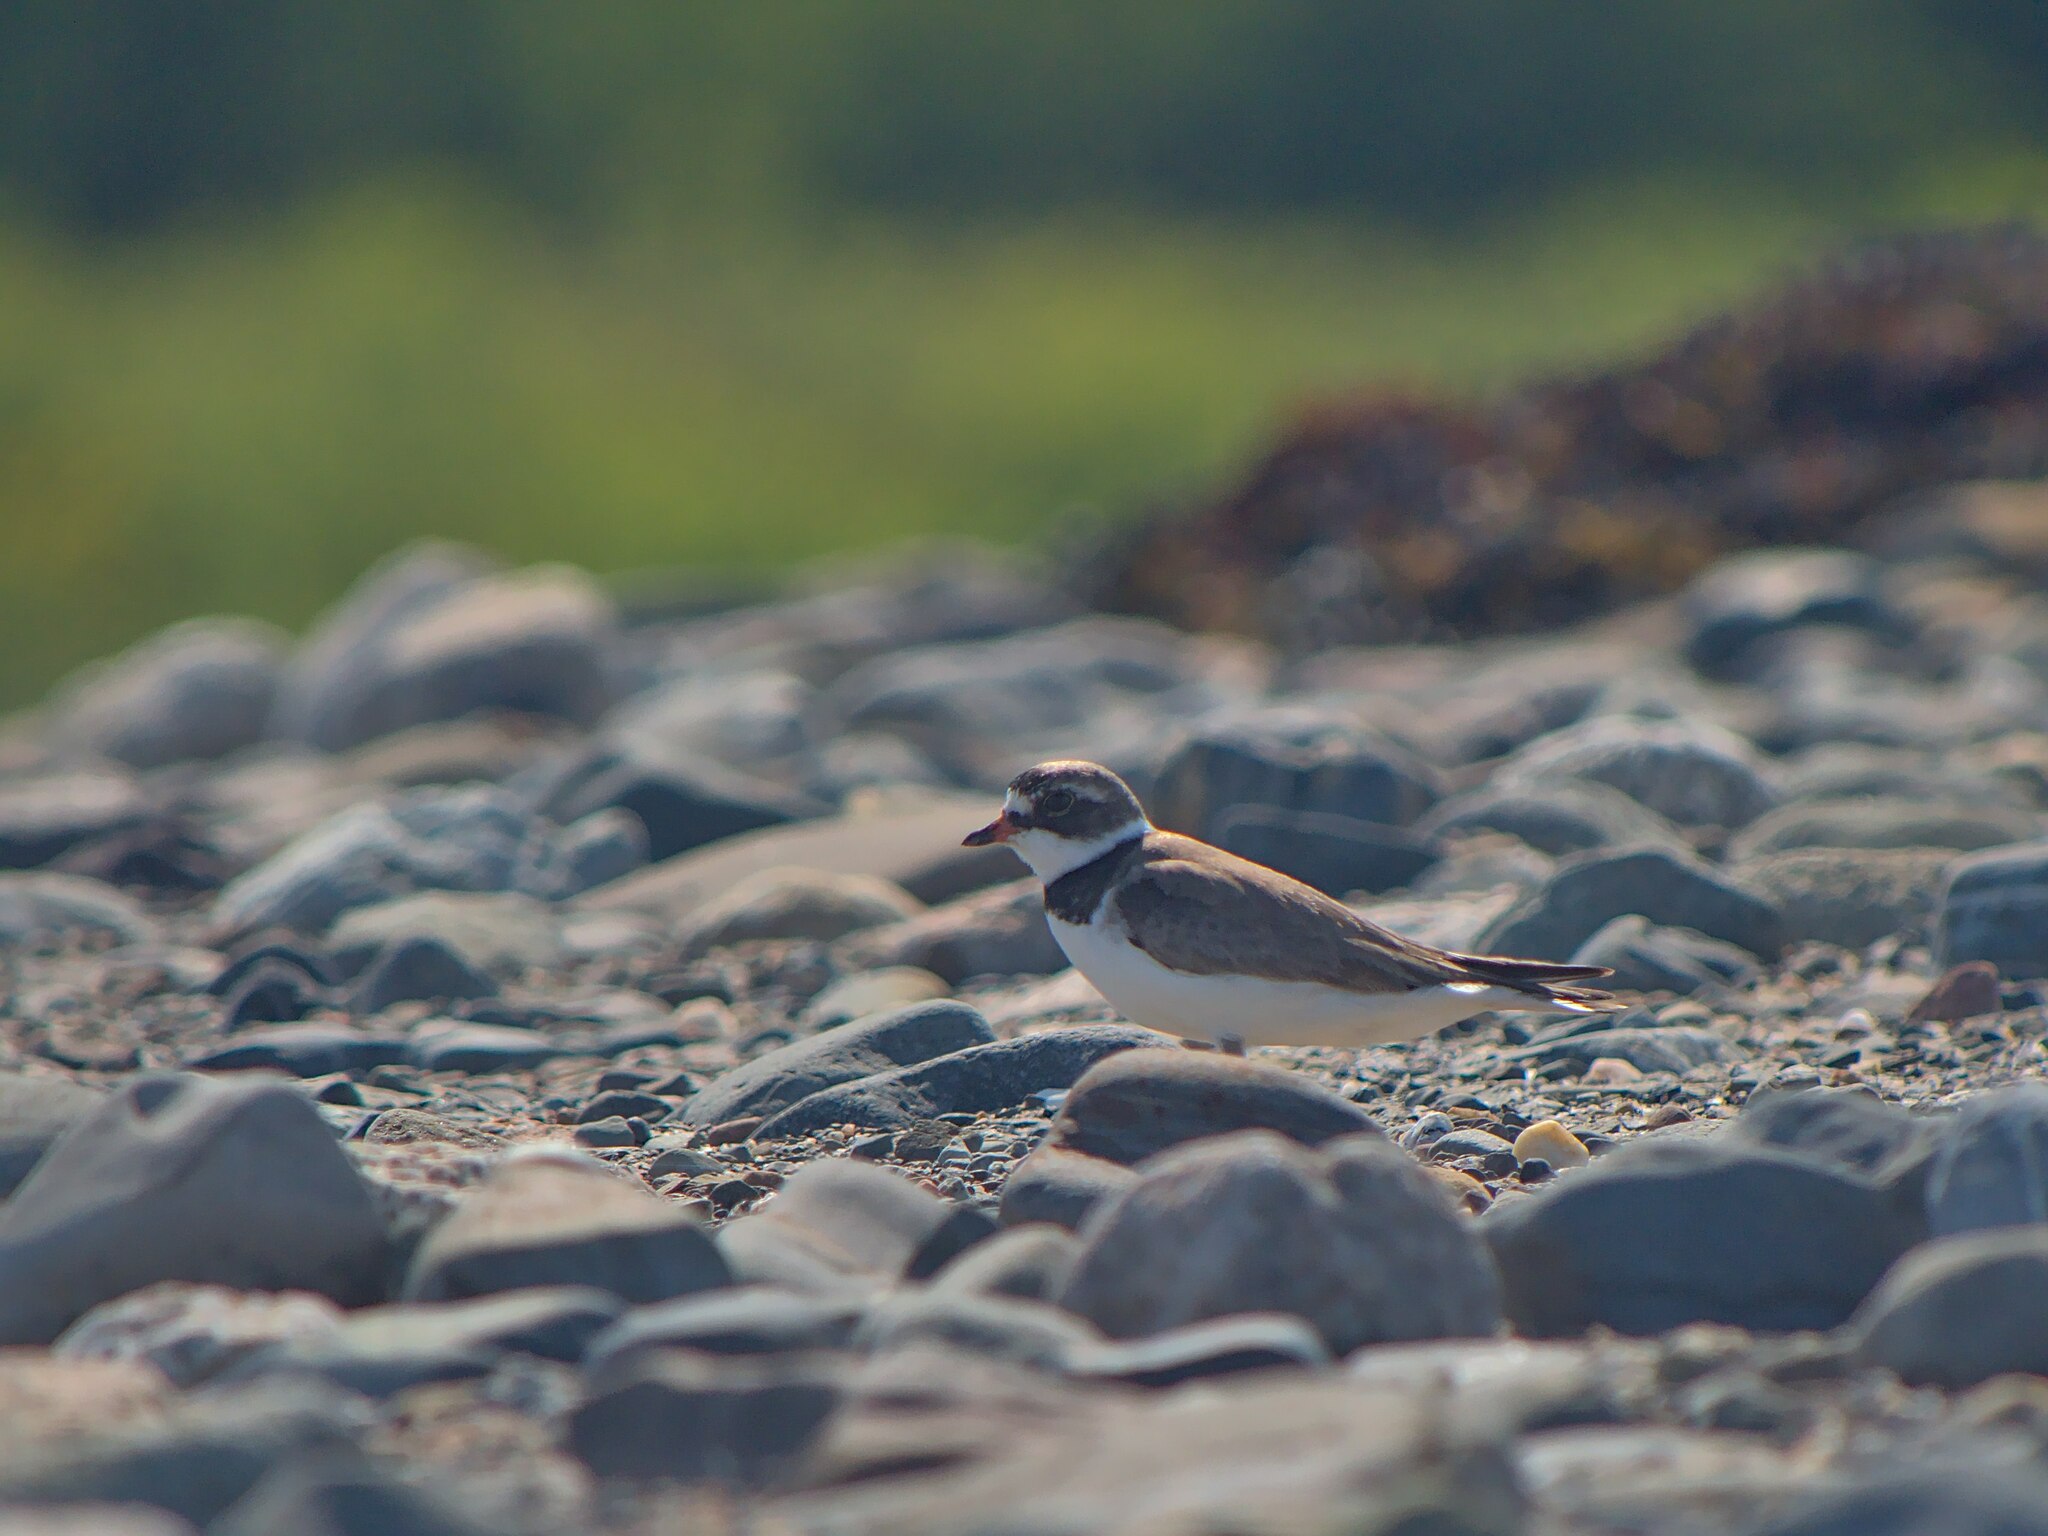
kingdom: Animalia
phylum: Chordata
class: Aves
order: Charadriiformes
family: Charadriidae
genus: Charadrius
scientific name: Charadrius semipalmatus
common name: Semipalmated plover
